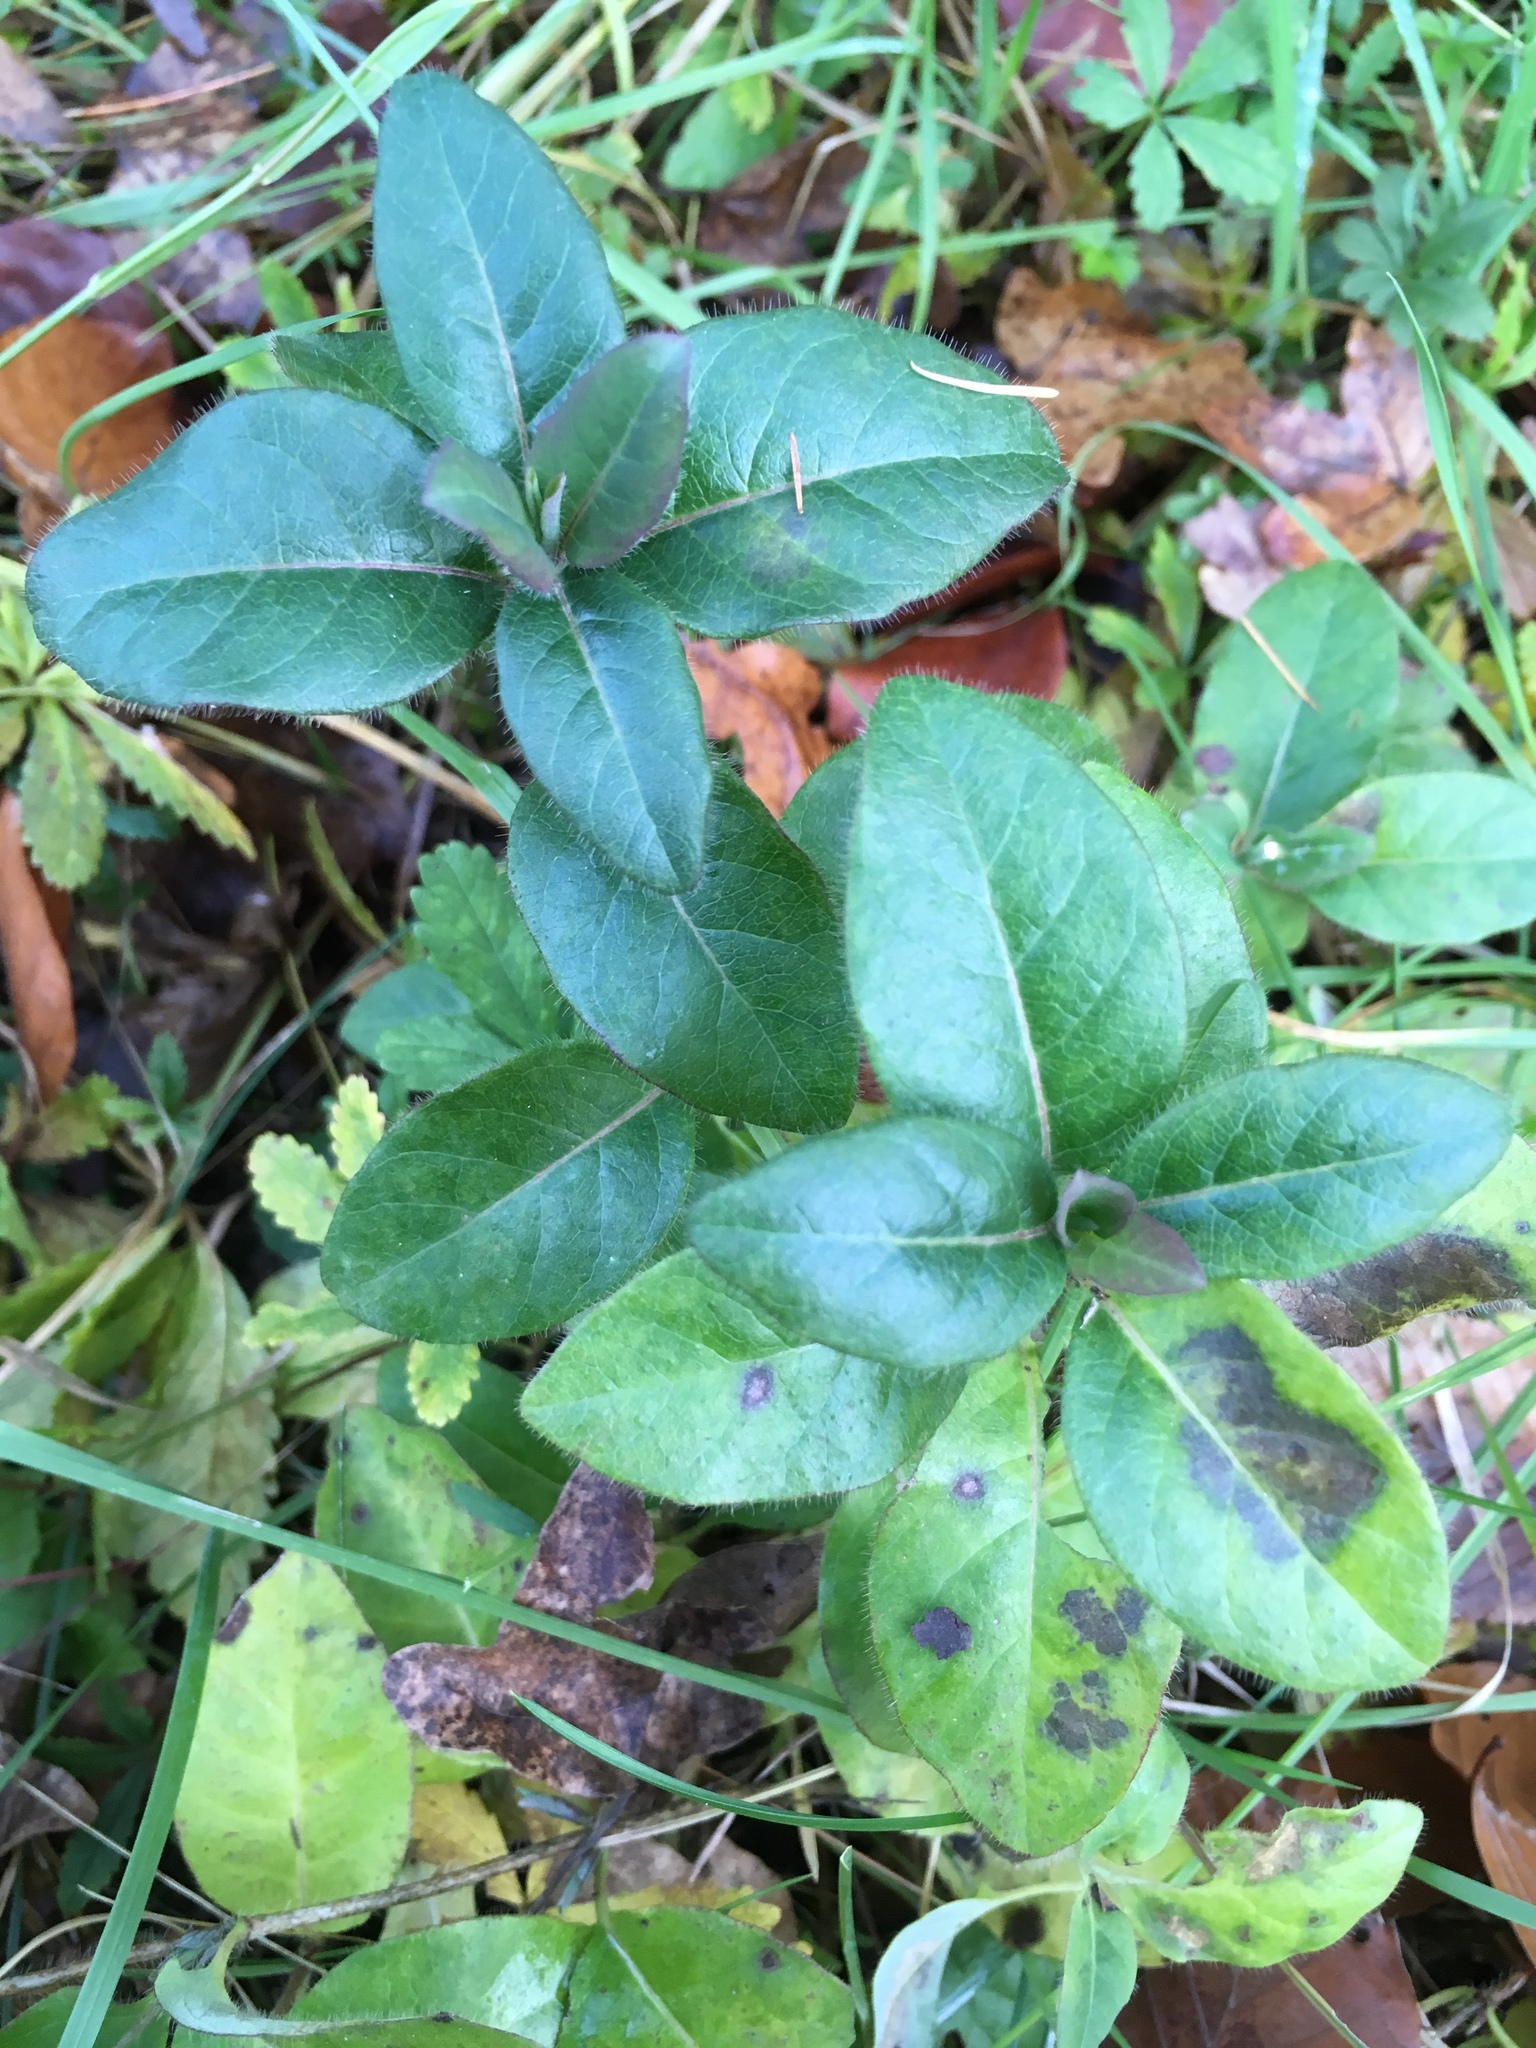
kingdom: Plantae
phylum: Tracheophyta
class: Magnoliopsida
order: Gentianales
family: Apocynaceae
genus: Vinca
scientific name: Vinca major
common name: Greater periwinkle
